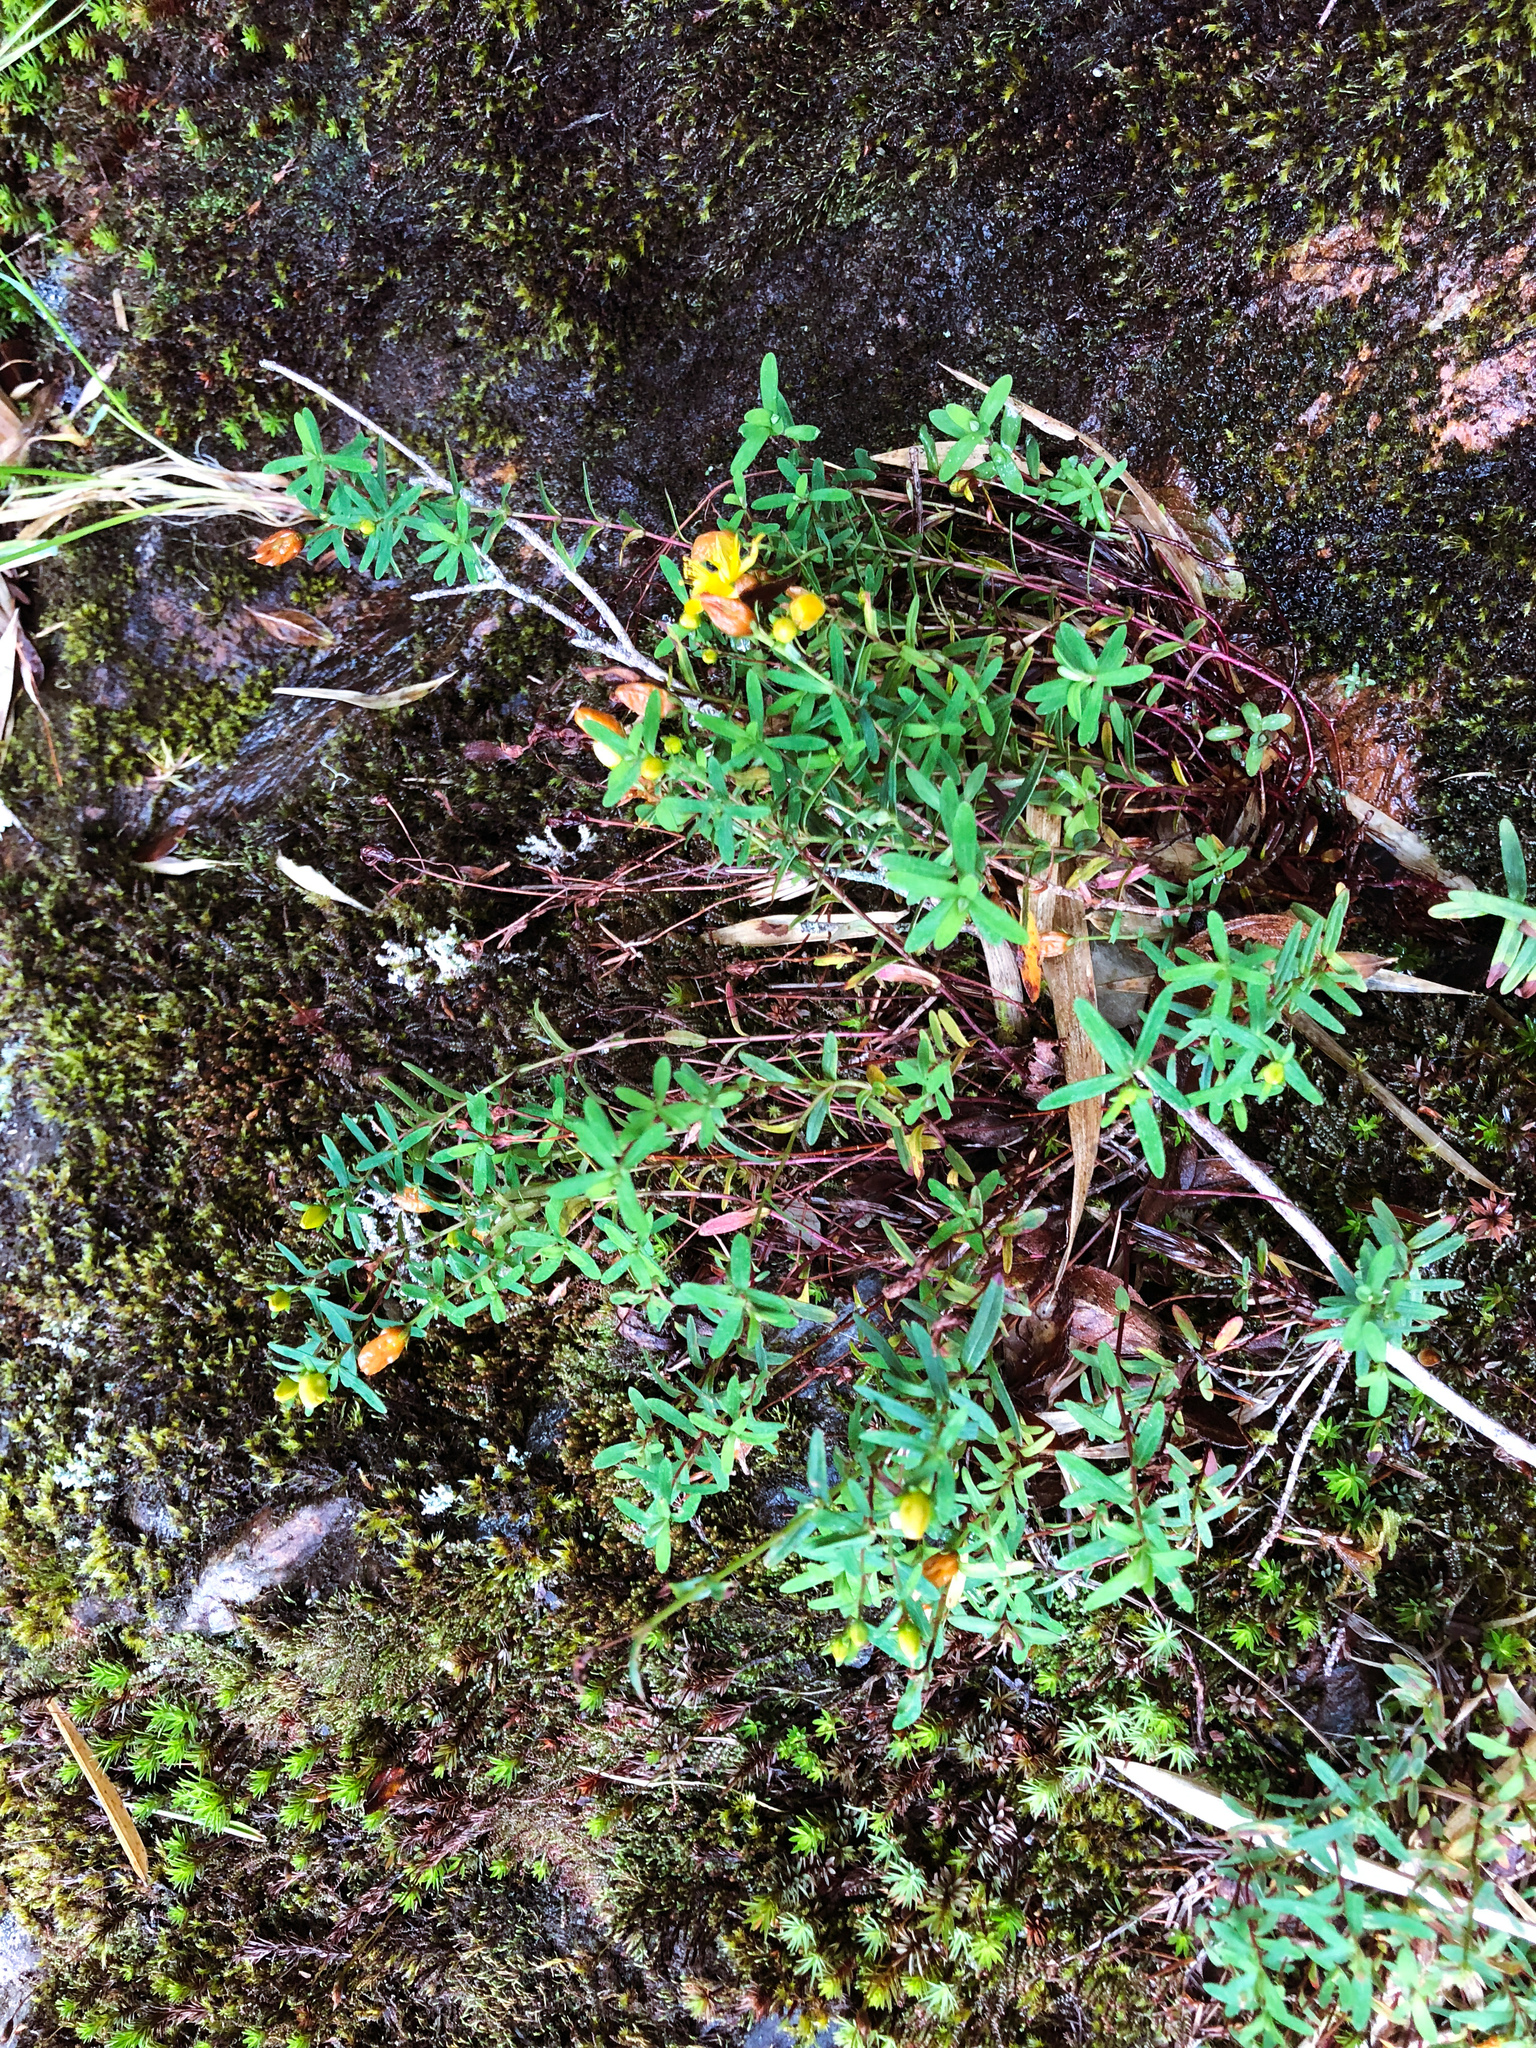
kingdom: Plantae
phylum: Tracheophyta
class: Magnoliopsida
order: Malpighiales
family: Hypericaceae
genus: Hypericum
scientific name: Hypericum nagasawae
